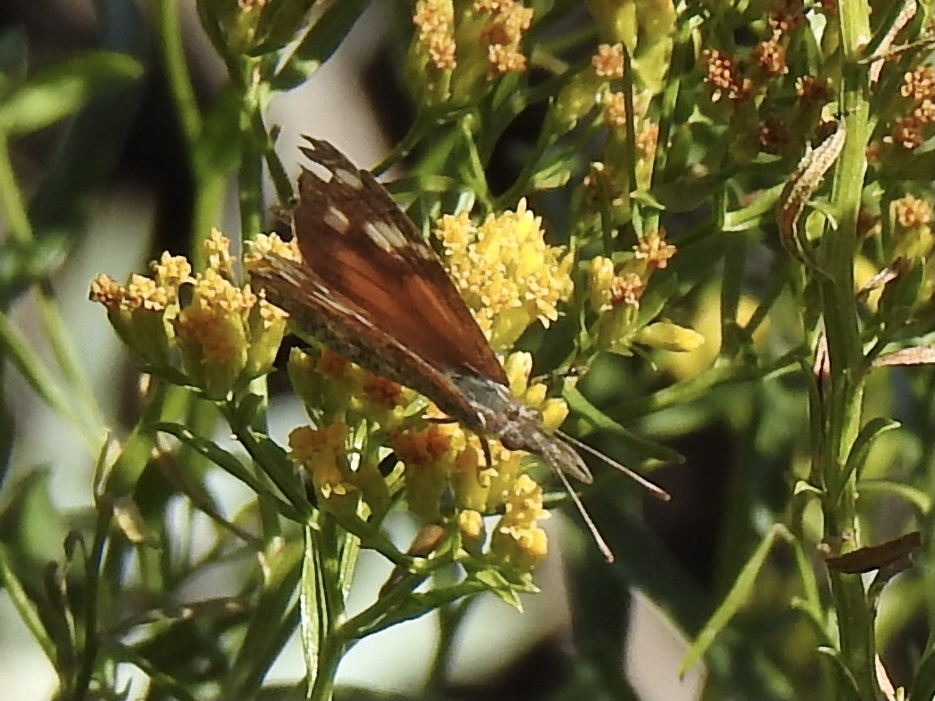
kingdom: Animalia
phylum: Arthropoda
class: Insecta
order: Lepidoptera
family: Nymphalidae
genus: Libytheana
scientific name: Libytheana carinenta
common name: American snout
